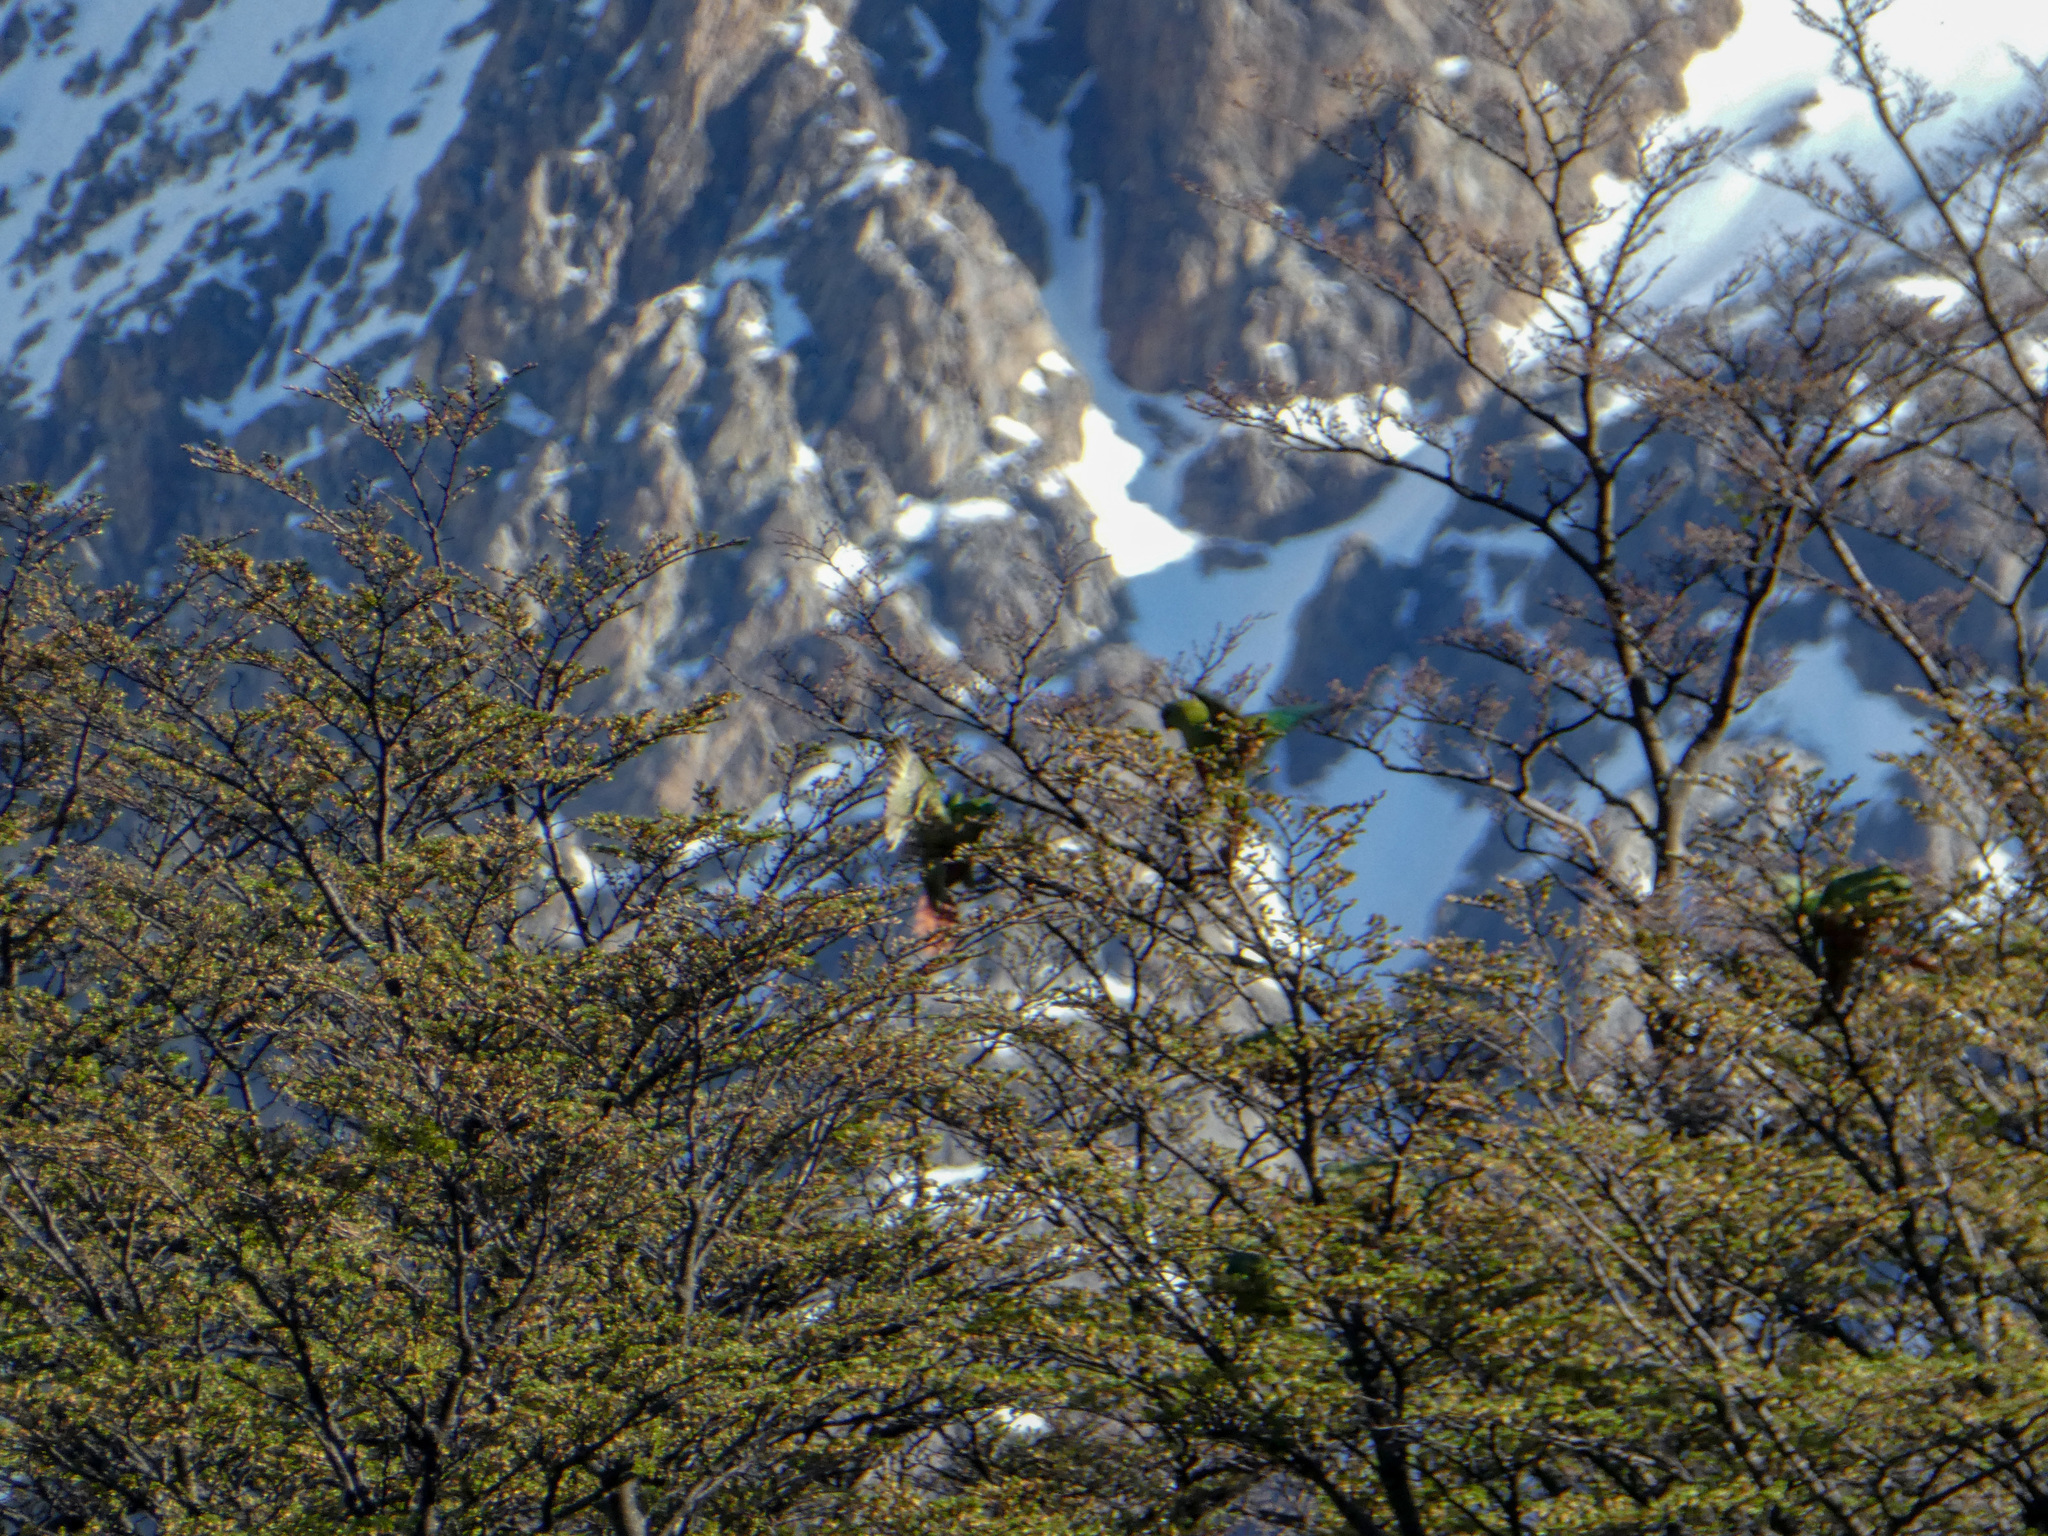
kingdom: Animalia
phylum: Chordata
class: Aves
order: Psittaciformes
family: Psittacidae
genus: Enicognathus
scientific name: Enicognathus ferrugineus
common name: Austral parakeet
